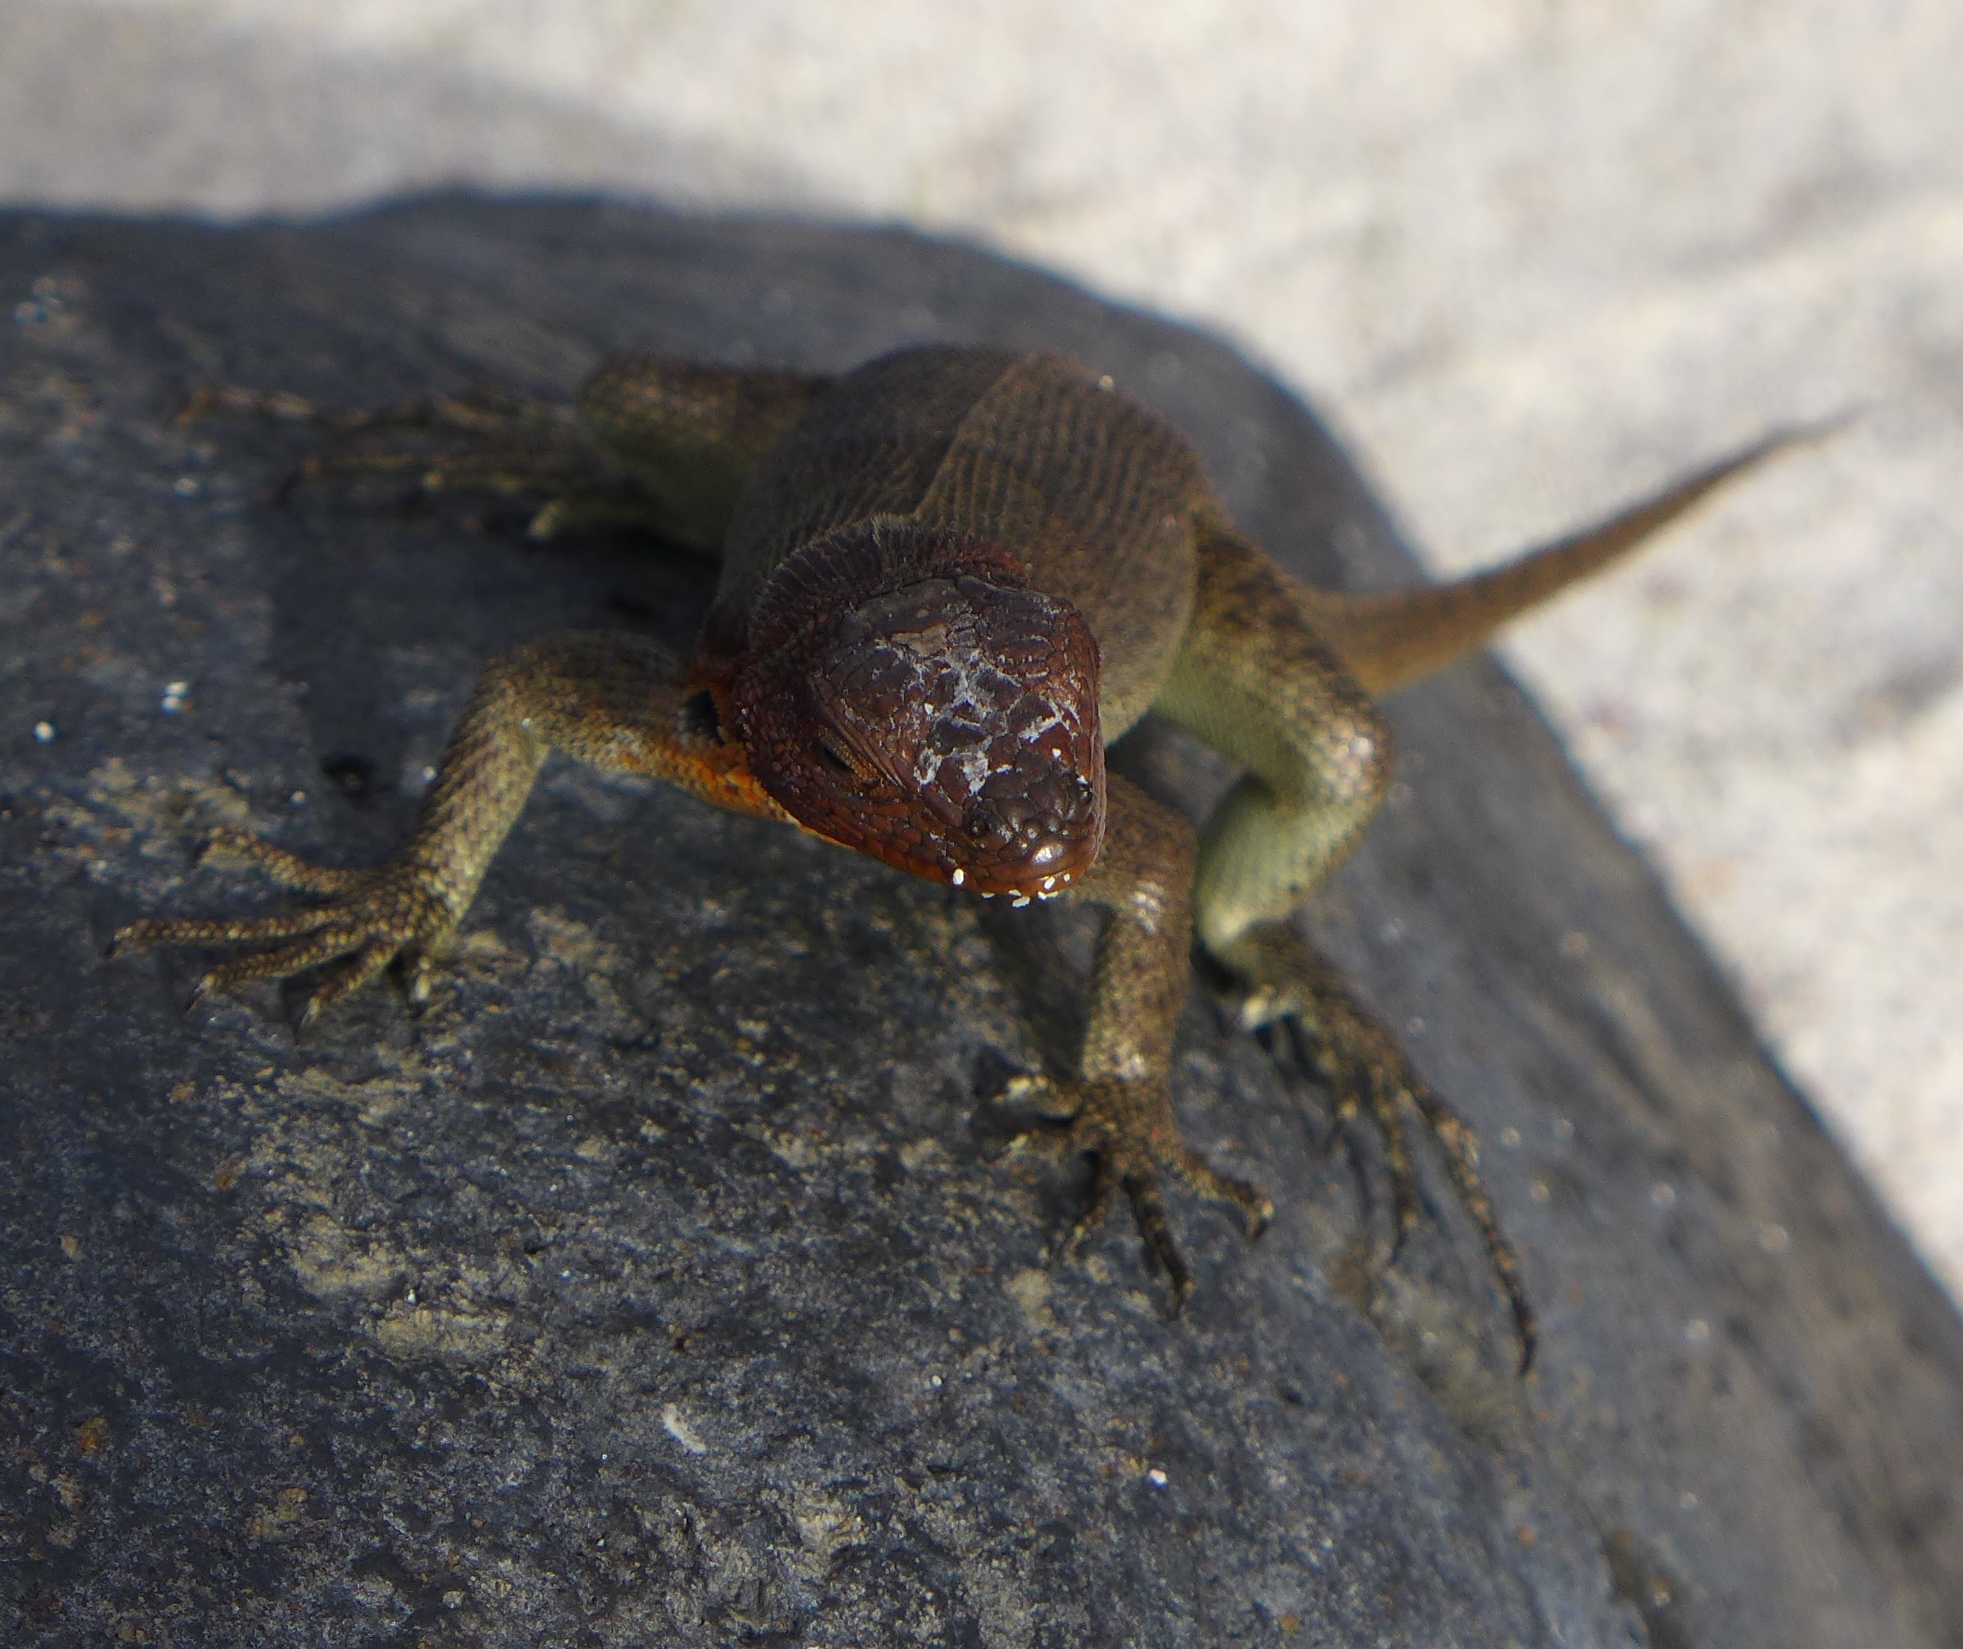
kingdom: Animalia
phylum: Chordata
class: Squamata
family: Tropiduridae
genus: Microlophus
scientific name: Microlophus delanonis
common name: Hood lava lizard
